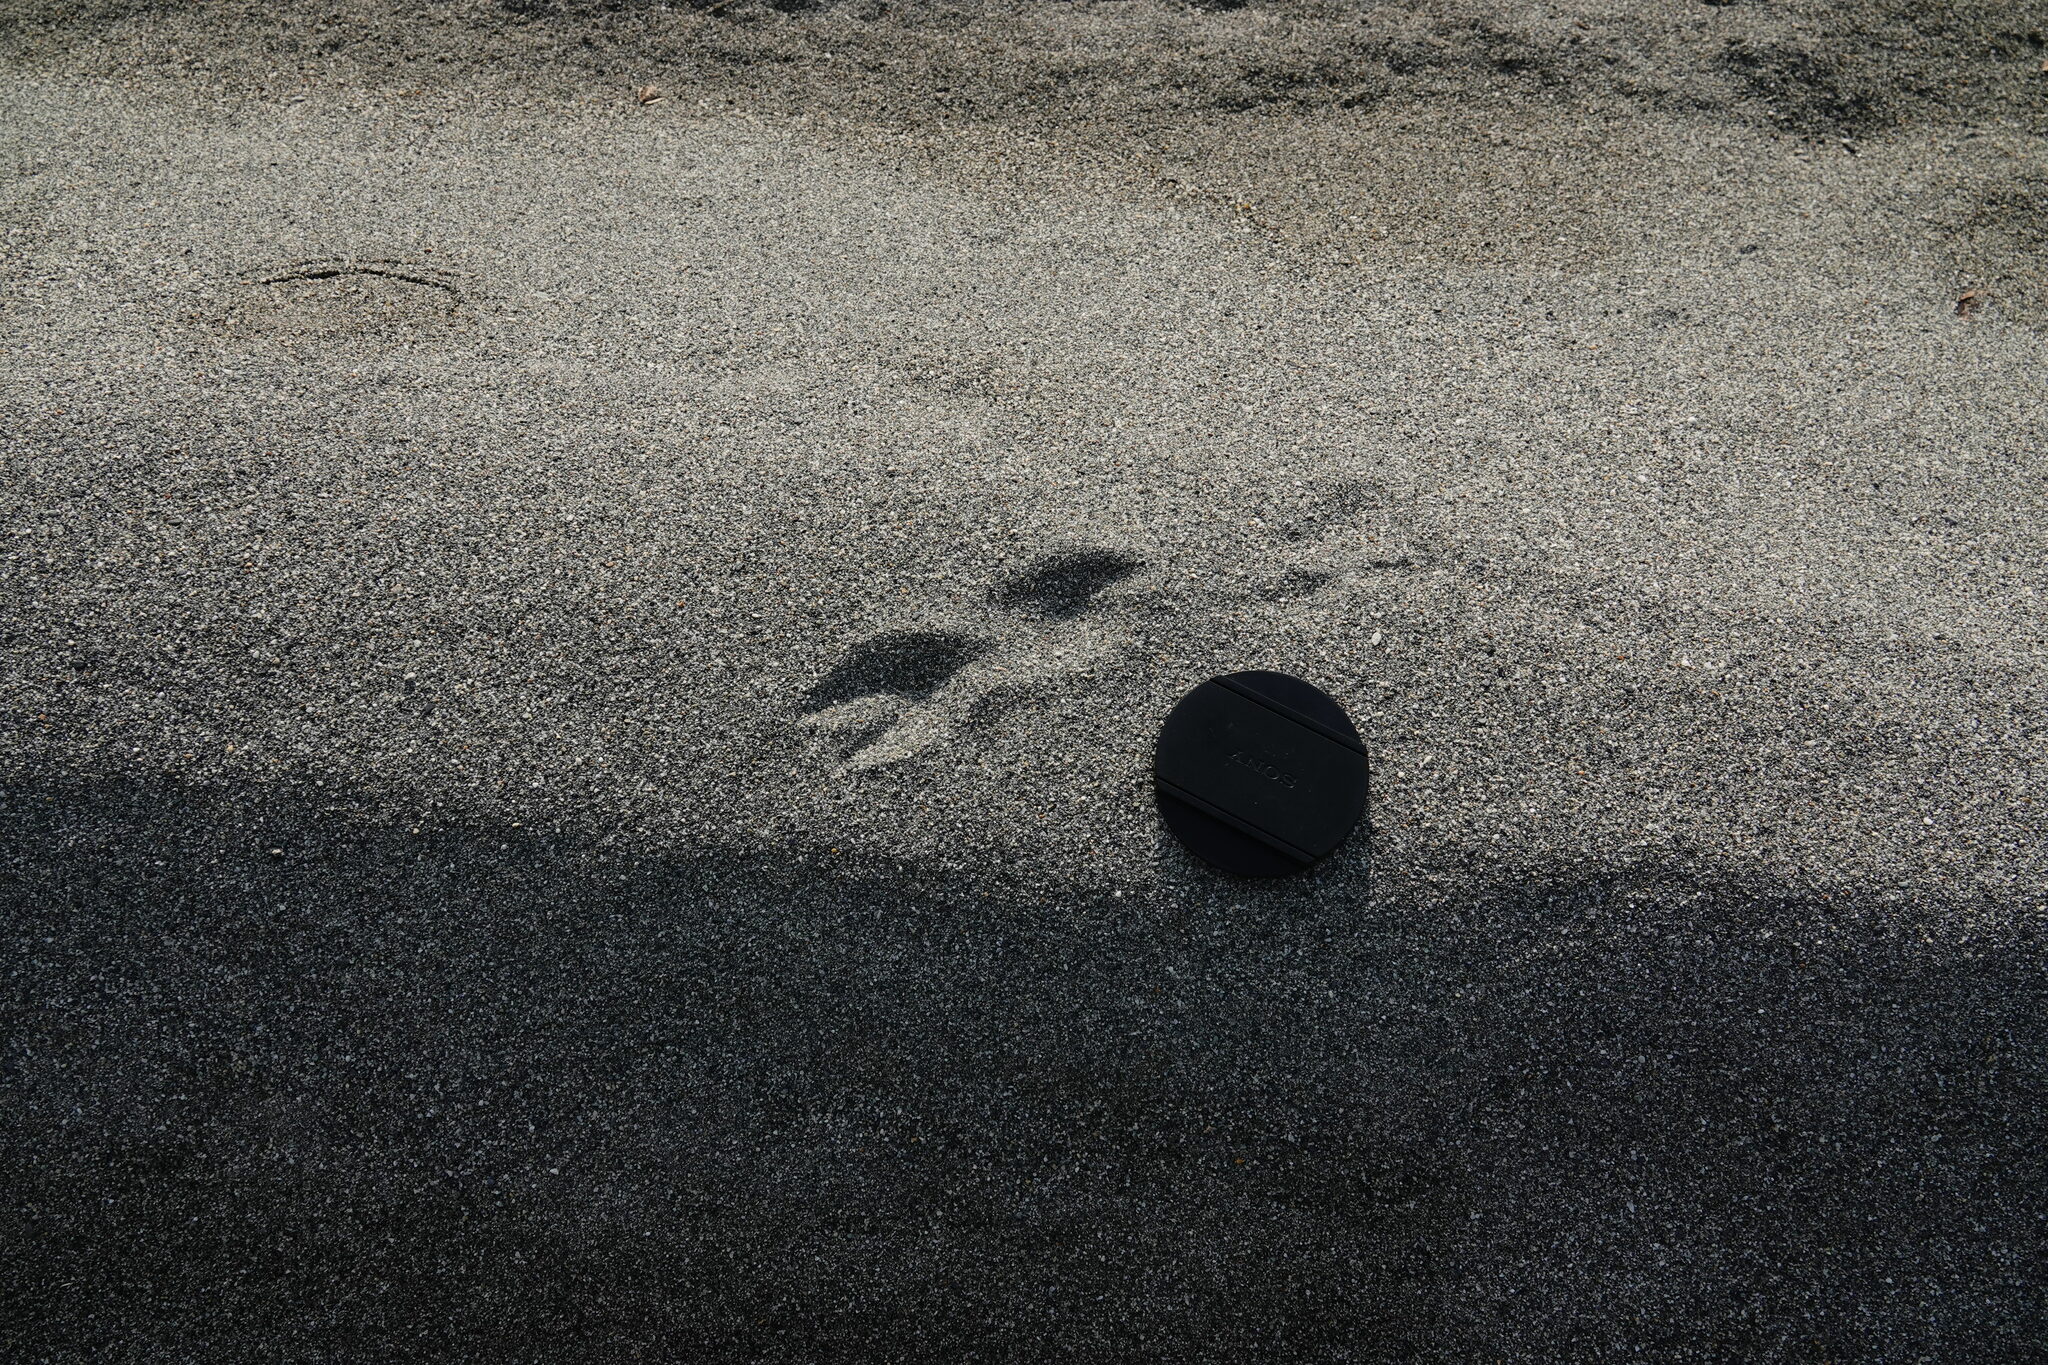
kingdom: Animalia
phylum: Chordata
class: Mammalia
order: Artiodactyla
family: Cervidae
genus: Muntiacus
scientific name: Muntiacus reevesi
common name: Reeves' muntjac
